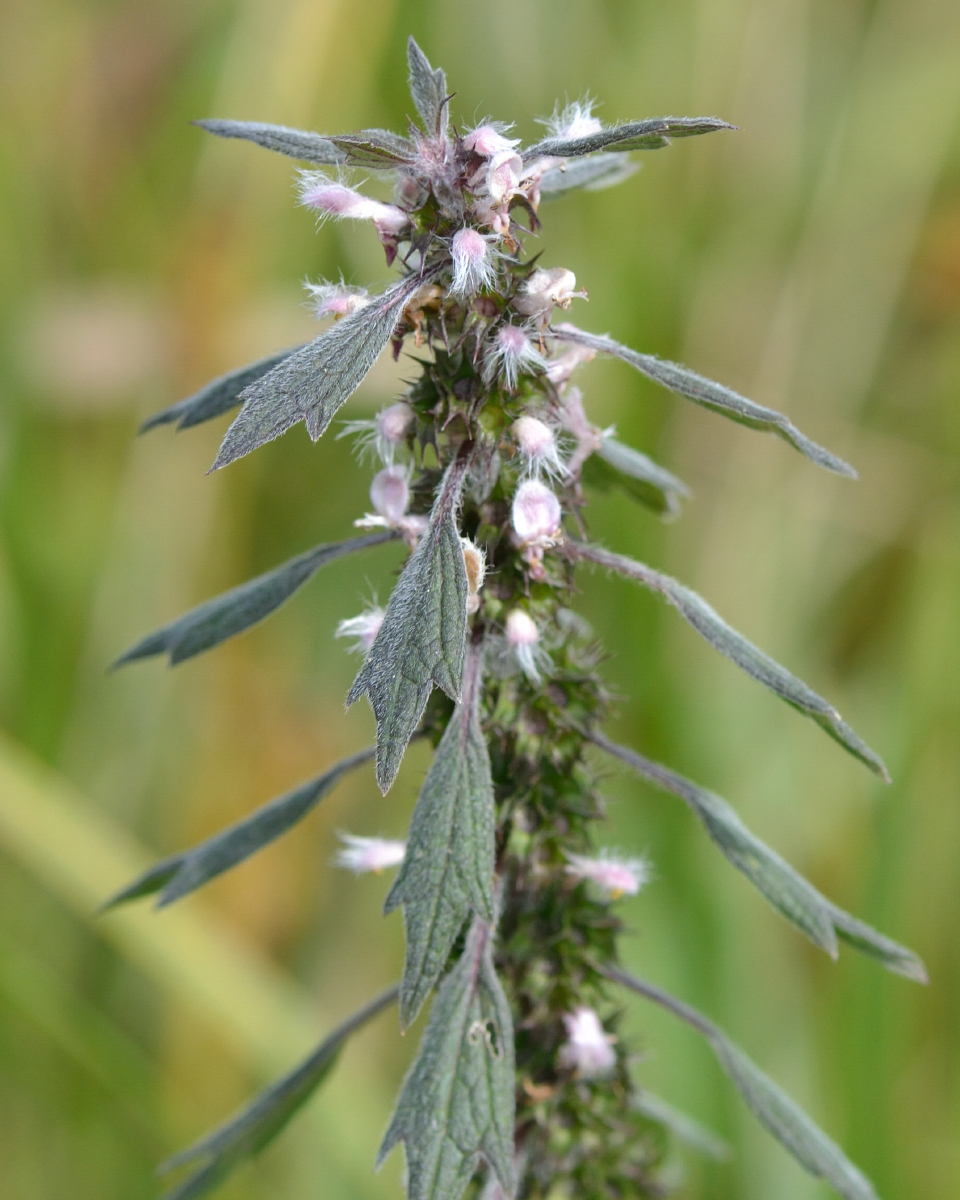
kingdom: Plantae
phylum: Tracheophyta
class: Magnoliopsida
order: Lamiales
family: Lamiaceae
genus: Leonurus
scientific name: Leonurus quinquelobatus
